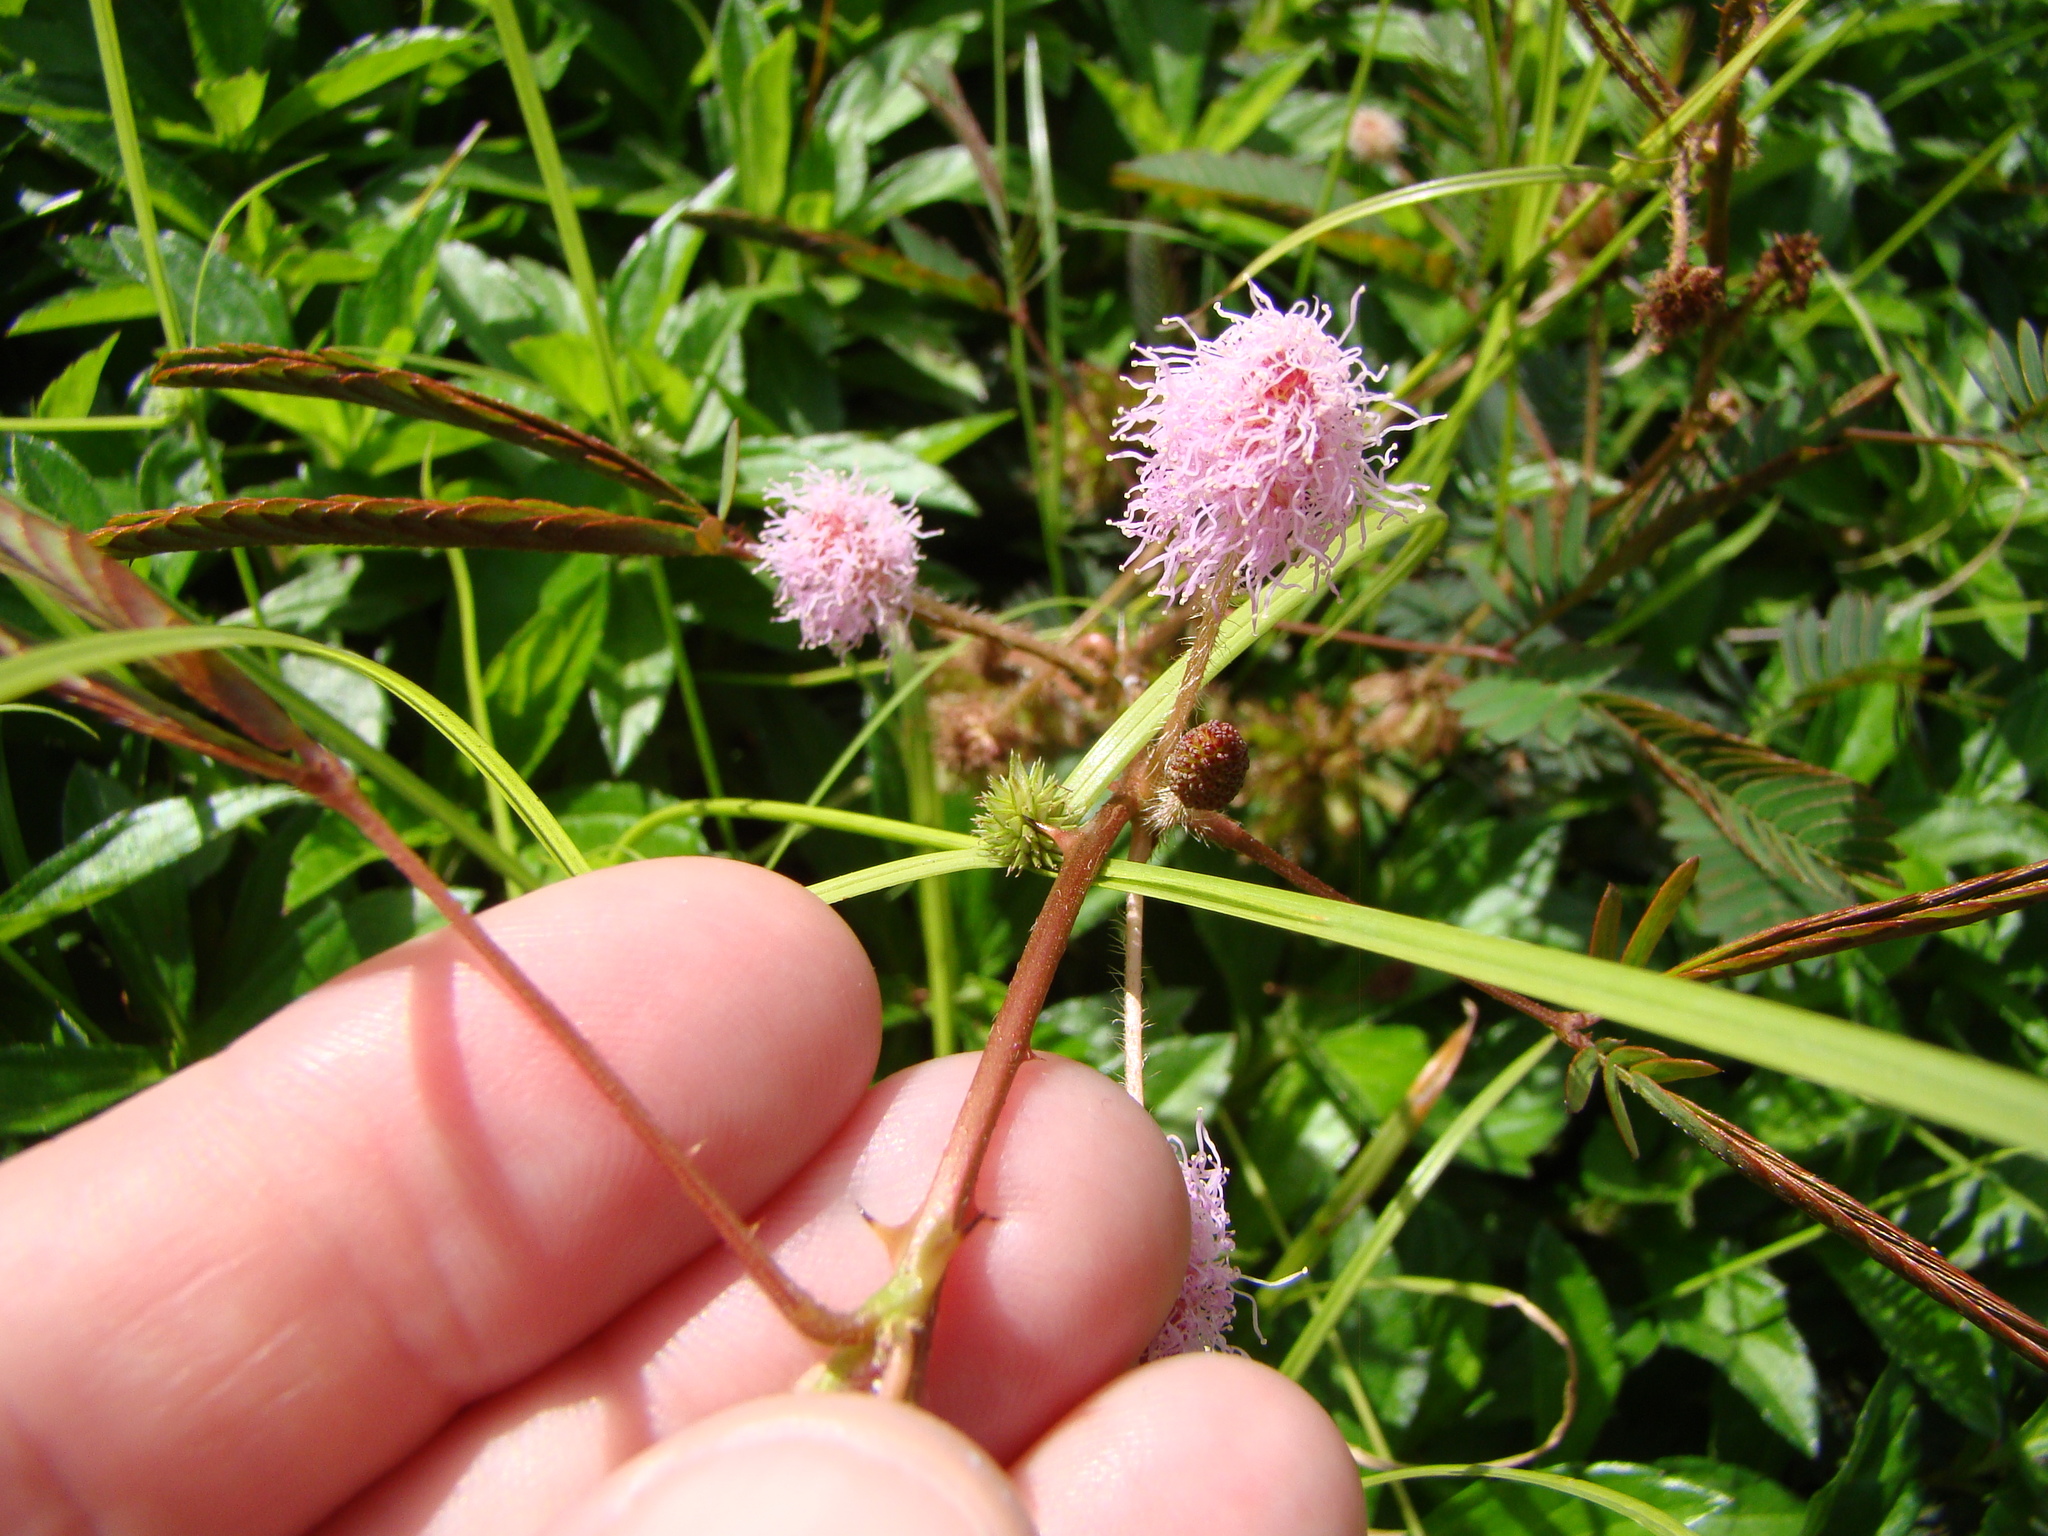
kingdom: Plantae
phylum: Tracheophyta
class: Magnoliopsida
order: Fabales
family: Fabaceae
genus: Mimosa
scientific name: Mimosa pudica
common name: Sensitive plant
